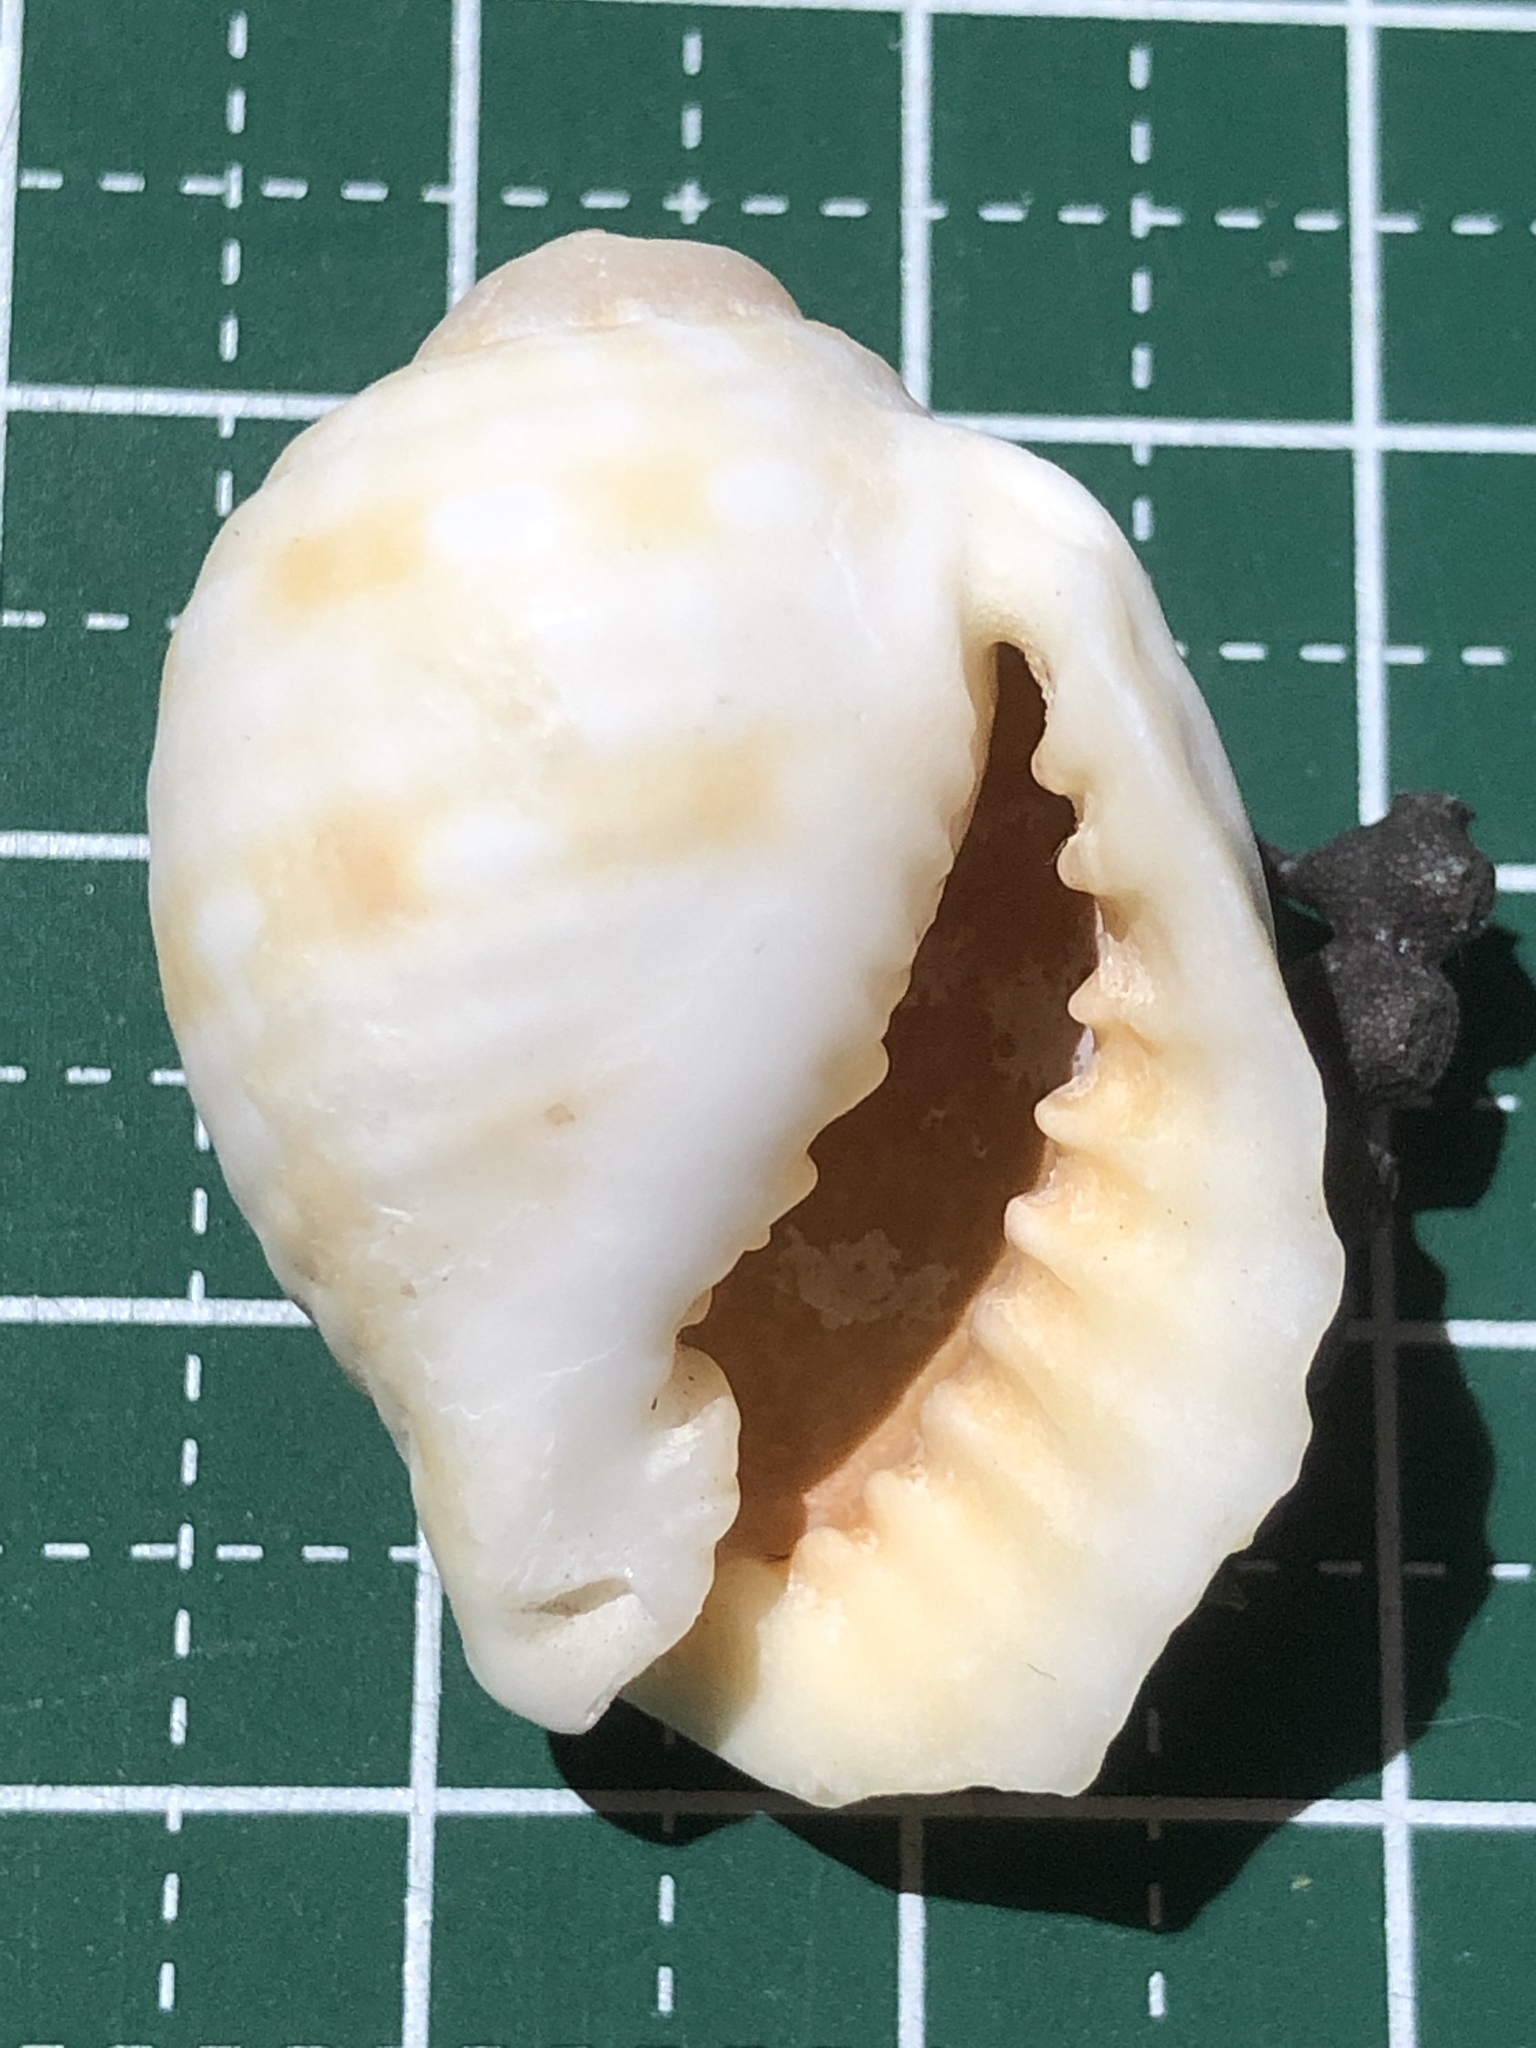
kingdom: Animalia
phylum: Mollusca
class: Gastropoda
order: Littorinimorpha
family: Tonnidae
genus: Malea
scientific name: Malea pomum
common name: Pacific grinning tun
